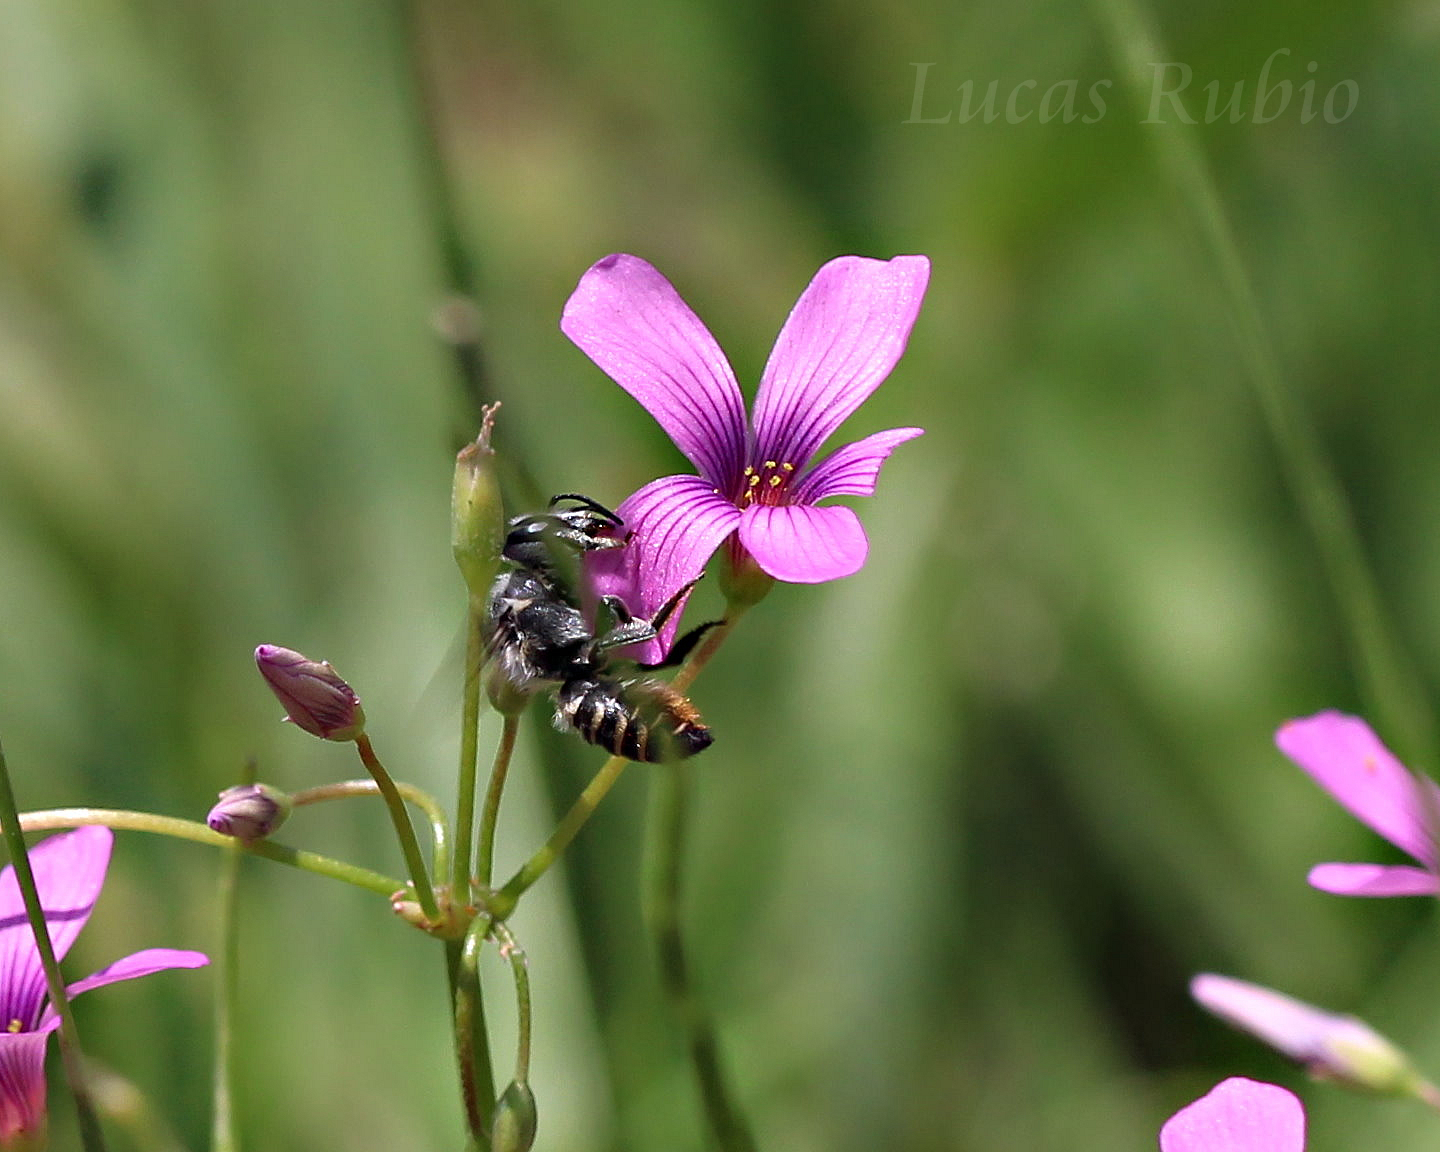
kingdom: Animalia
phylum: Arthropoda
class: Insecta
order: Hymenoptera
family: Megachilidae
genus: Megachile
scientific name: Megachile
